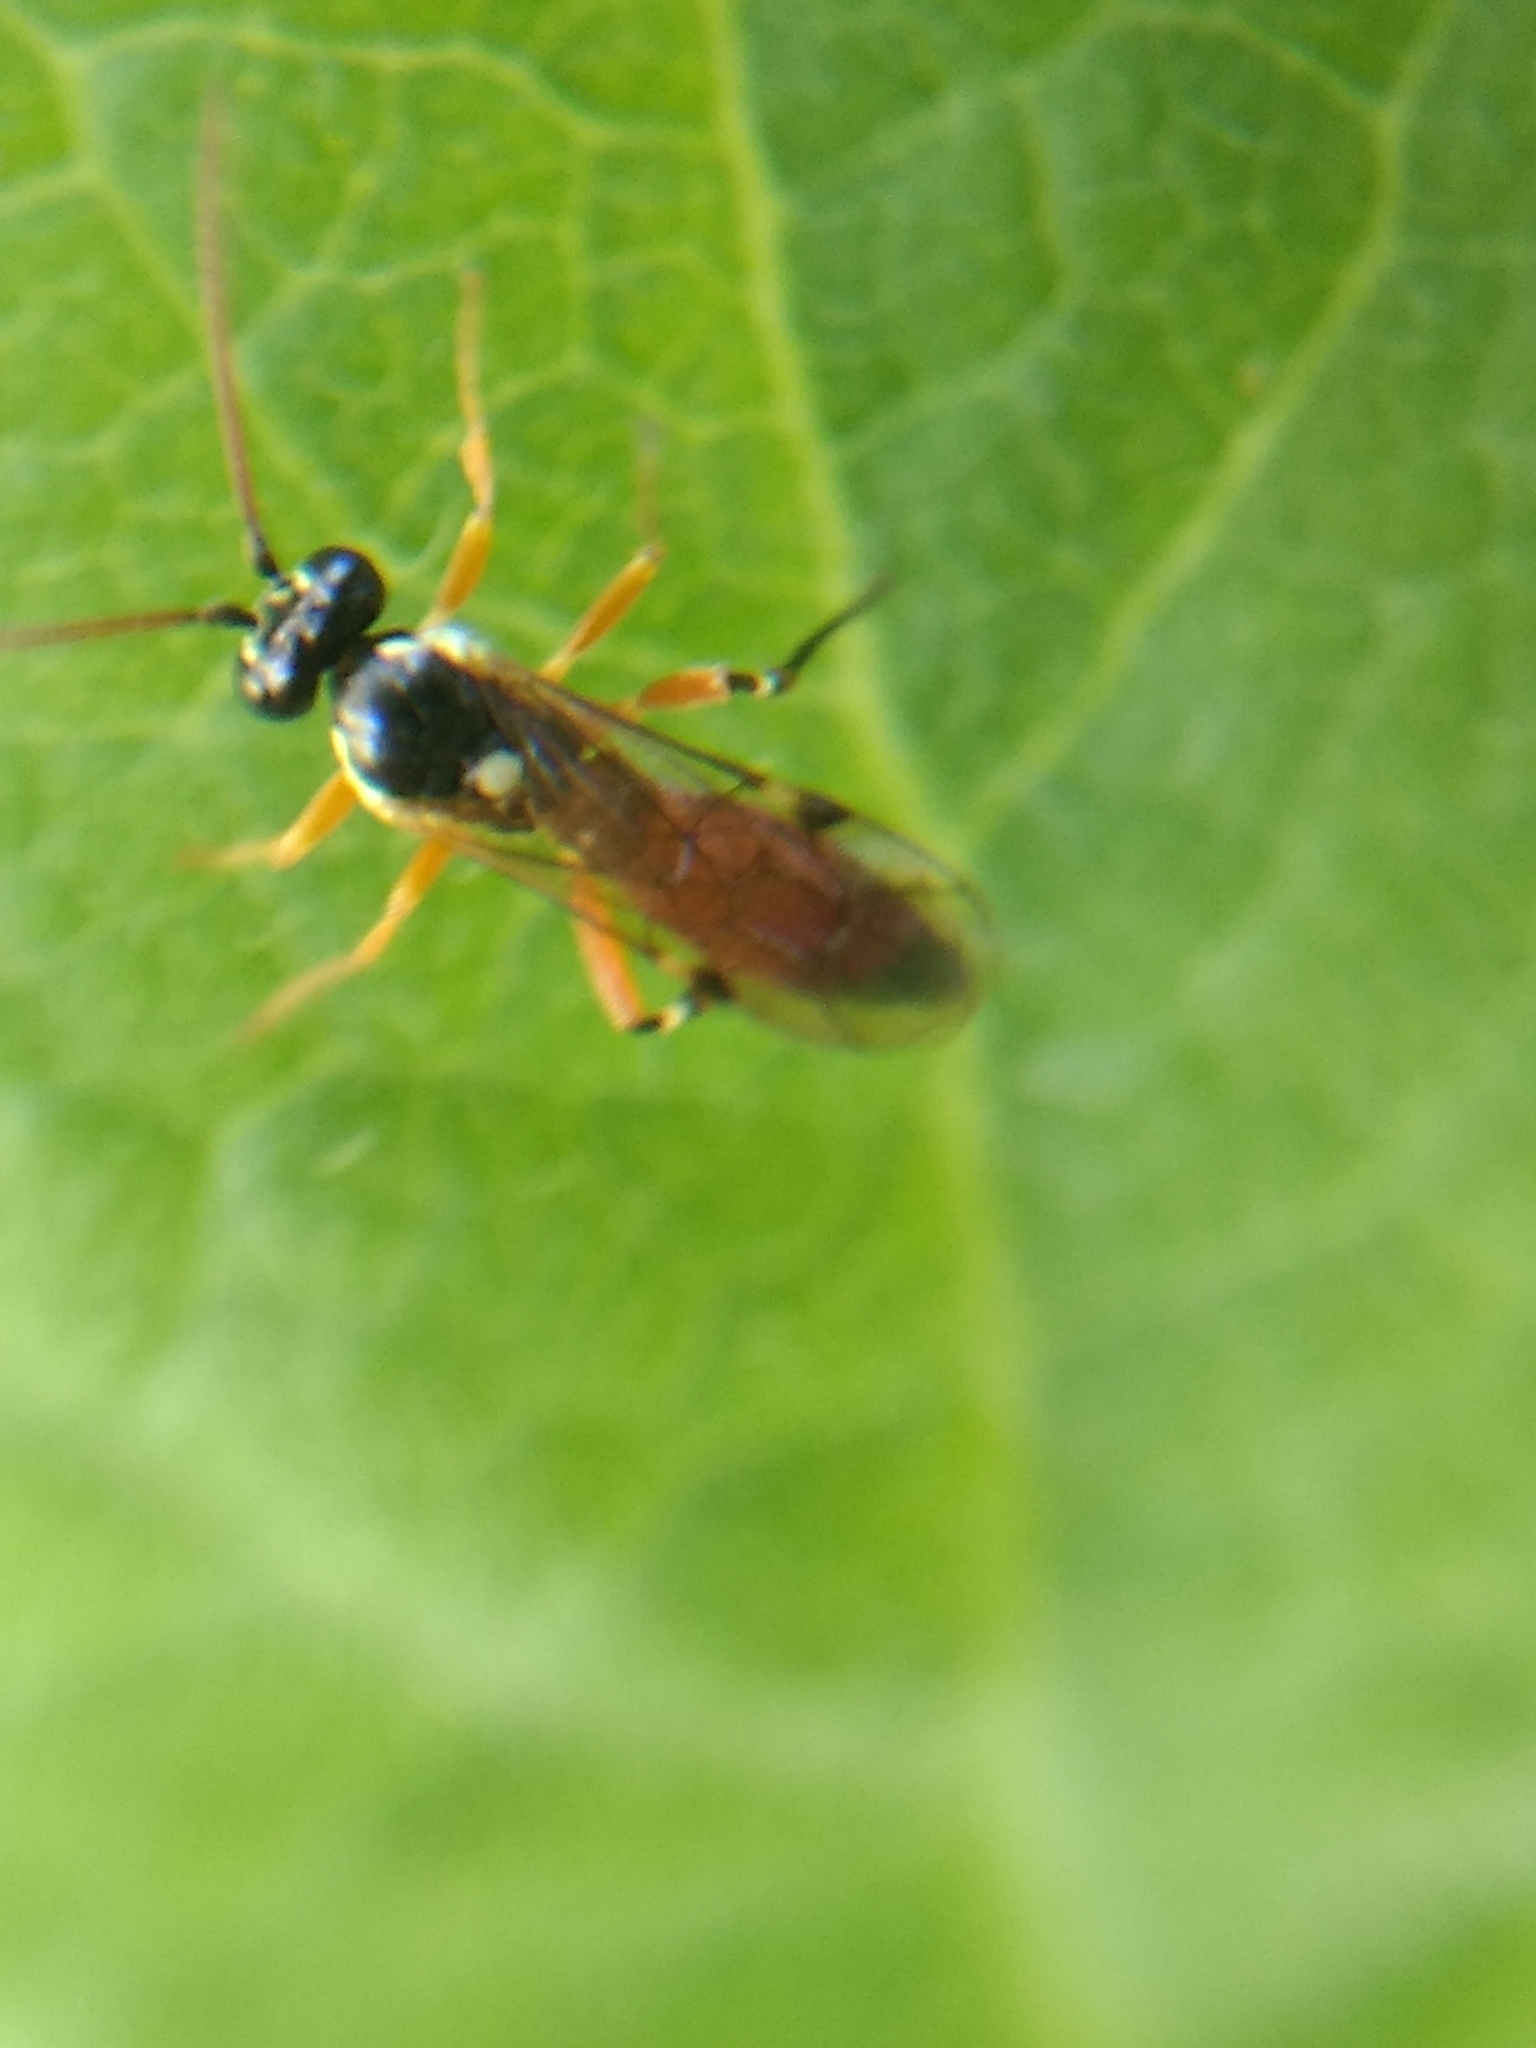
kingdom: Animalia
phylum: Arthropoda
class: Insecta
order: Hymenoptera
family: Ichneumonidae
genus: Diplazon
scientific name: Diplazon laetatorius
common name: Parasitoid wasp
